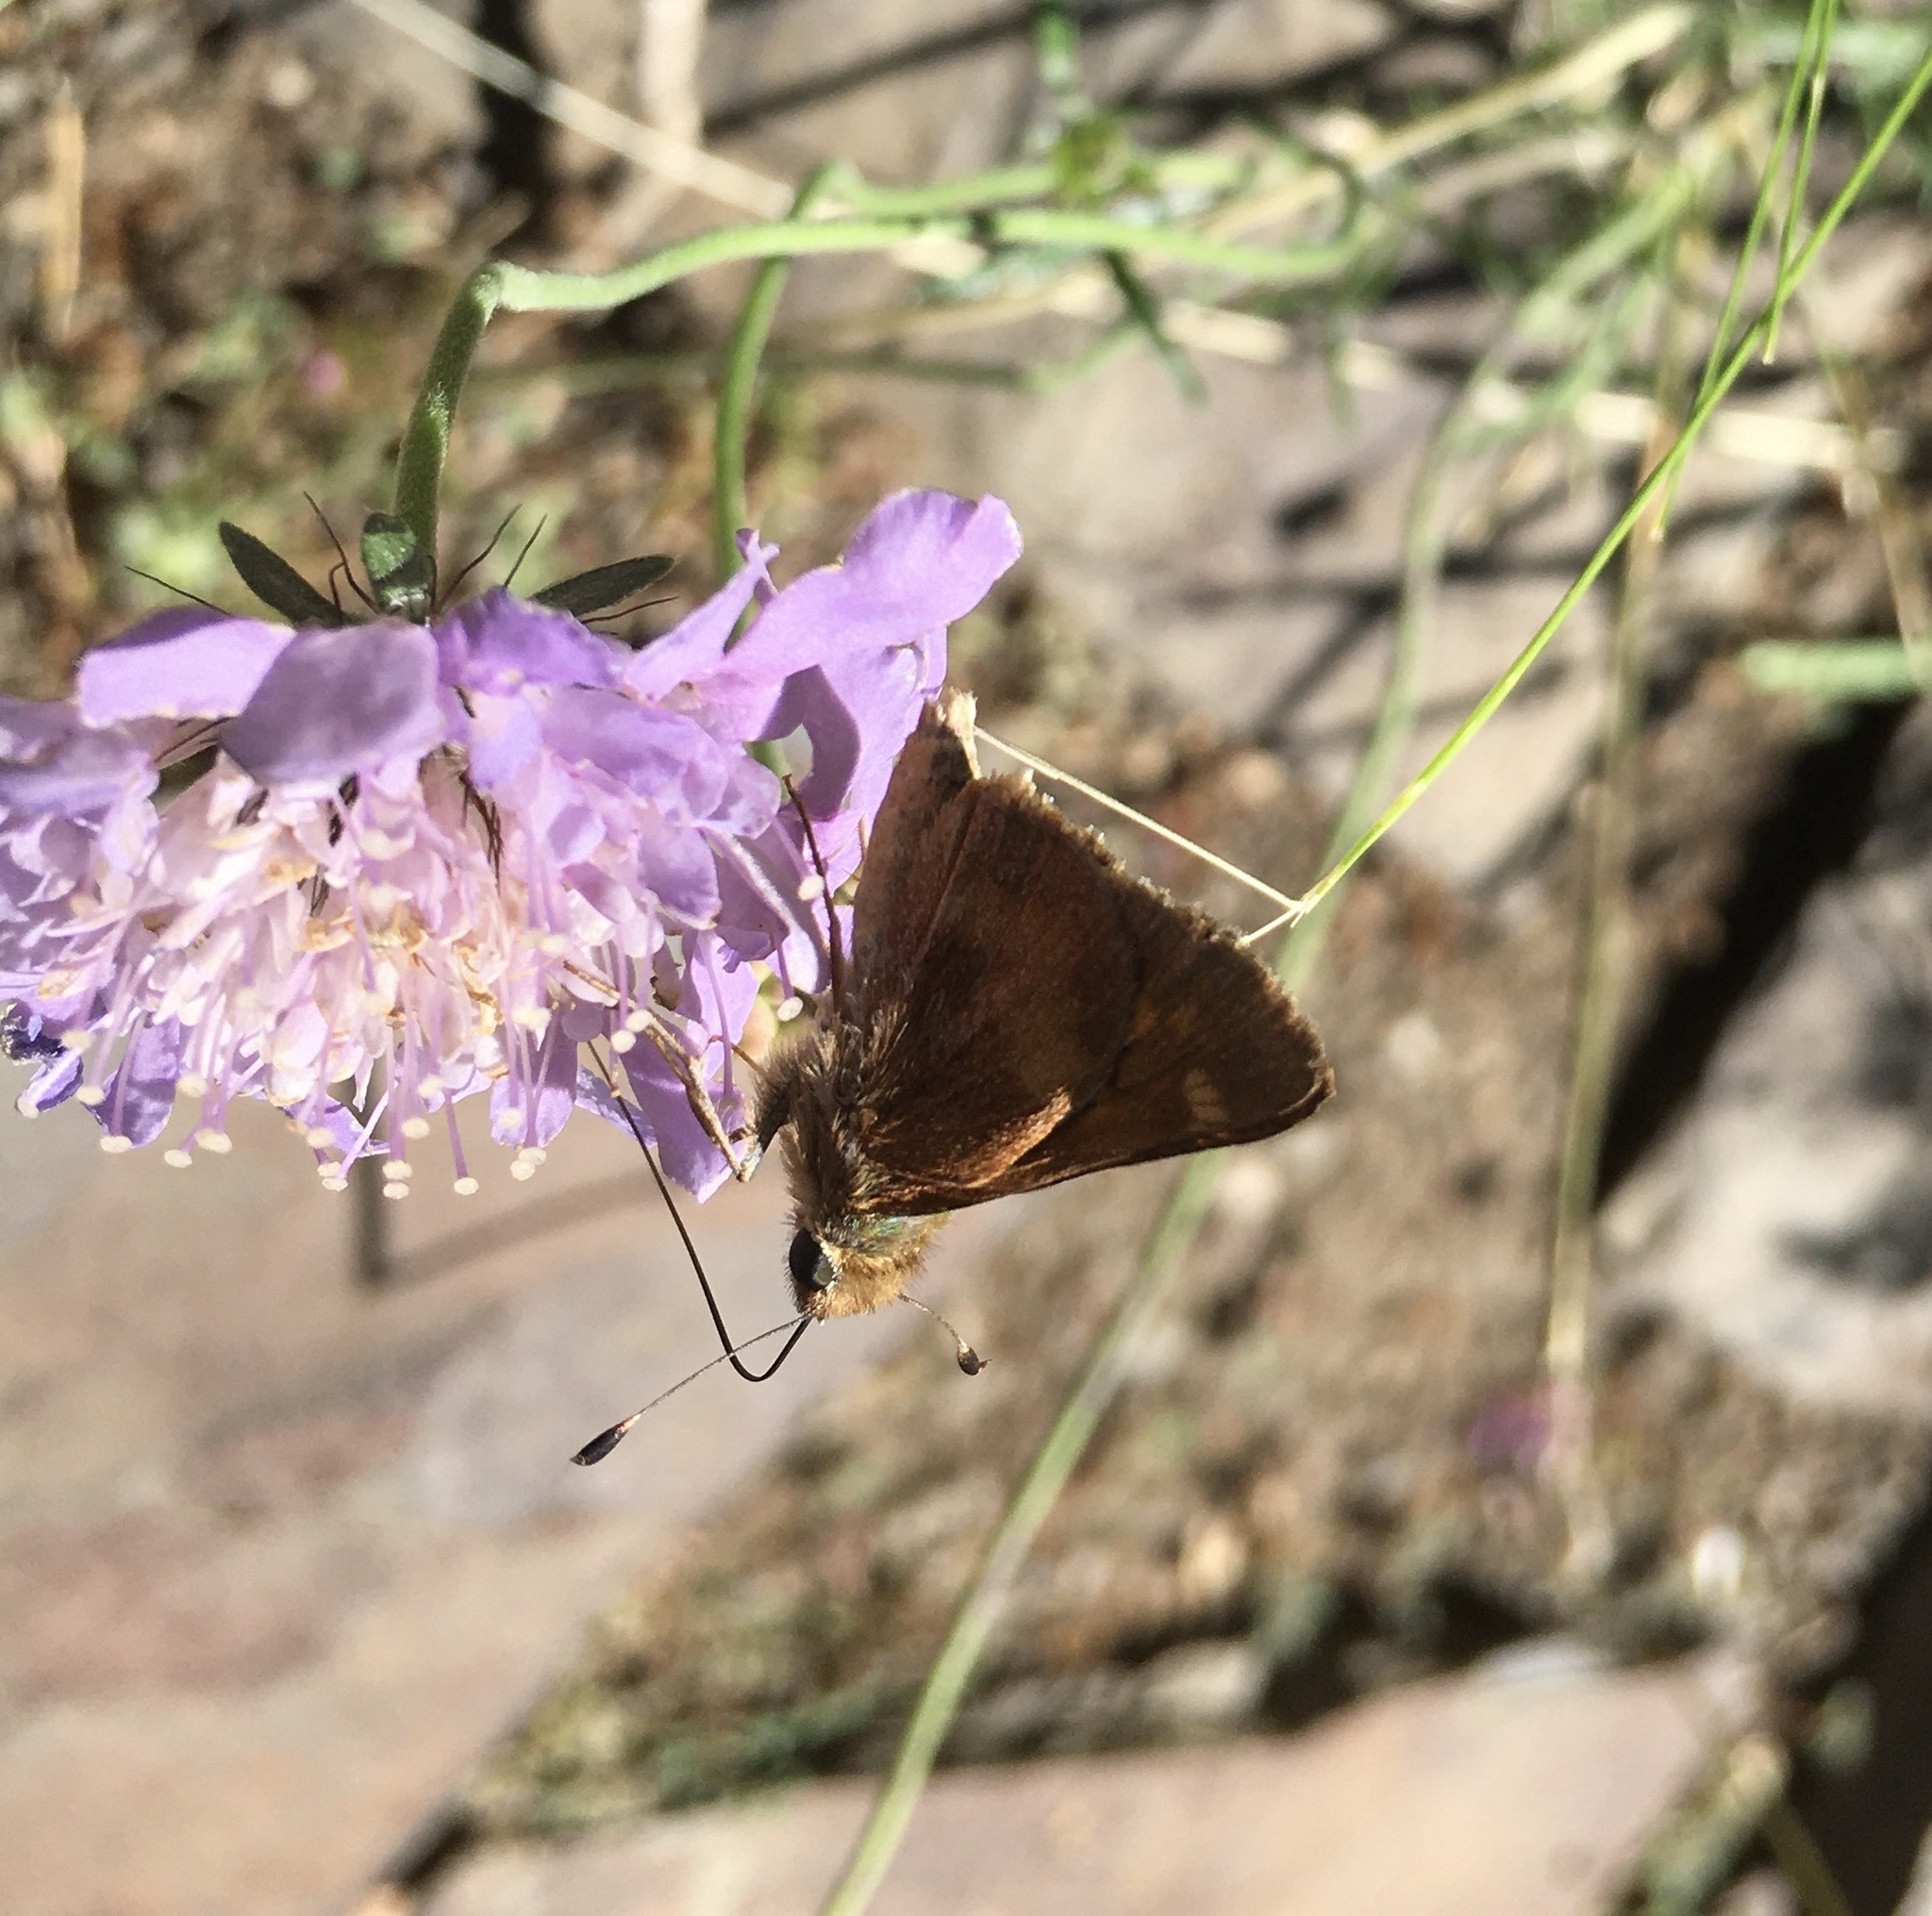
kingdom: Animalia
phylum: Arthropoda
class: Insecta
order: Lepidoptera
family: Hesperiidae
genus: Lon
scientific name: Lon melane
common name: Umber skipper
